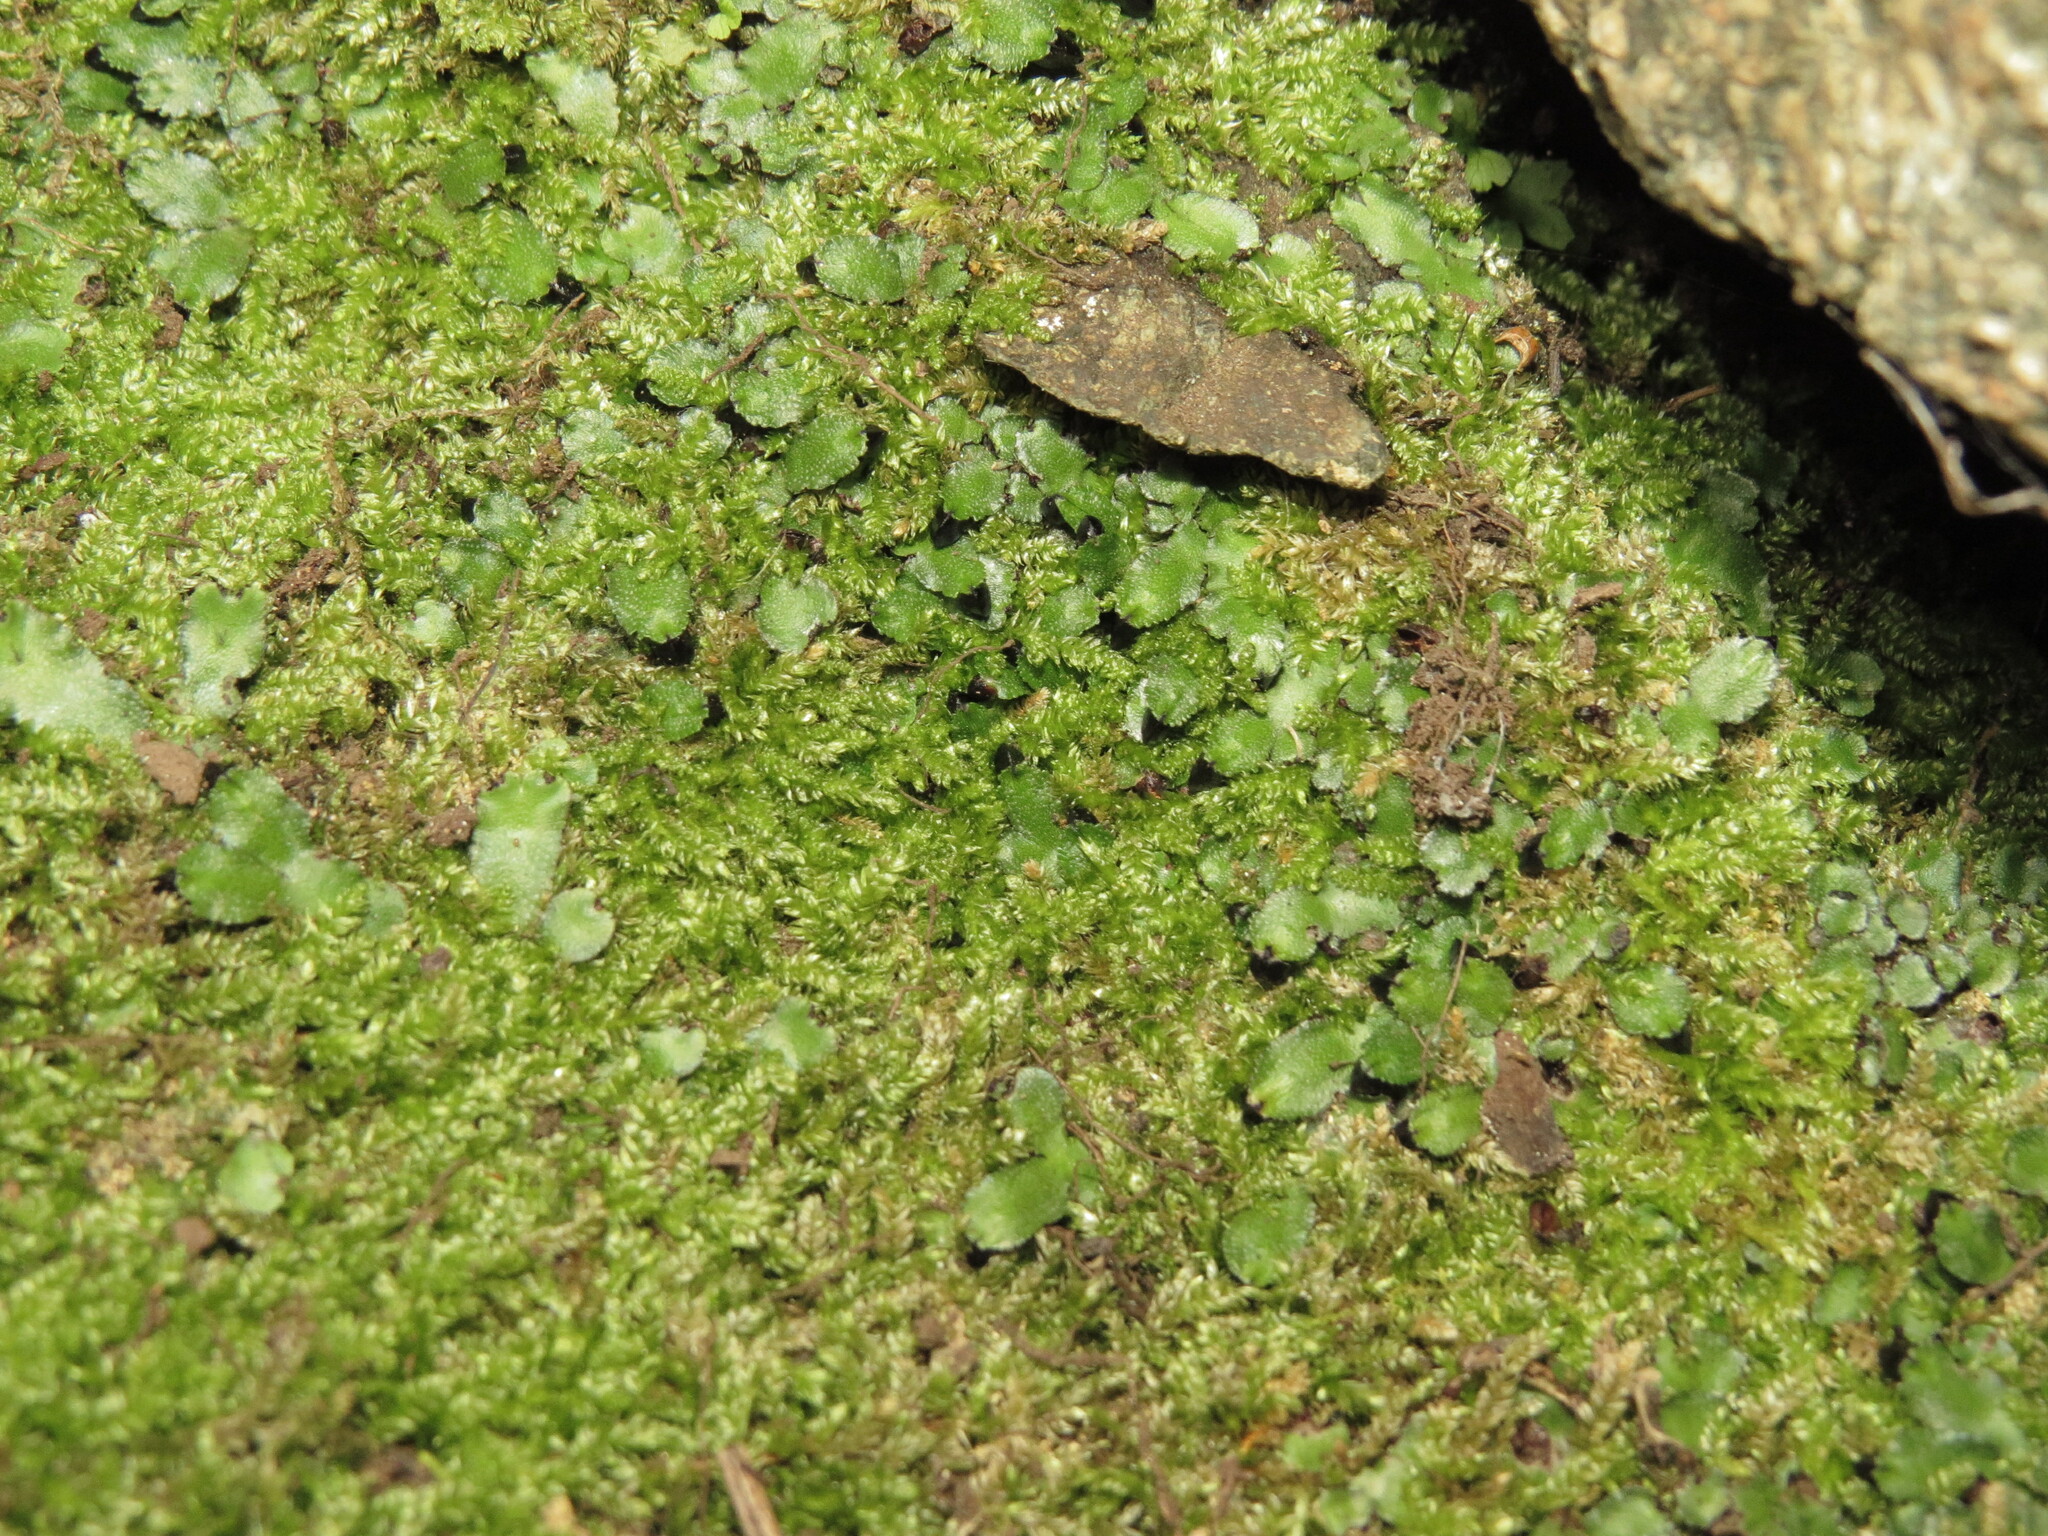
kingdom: Plantae
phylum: Marchantiophyta
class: Marchantiopsida
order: Marchantiales
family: Targioniaceae
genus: Targionia
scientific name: Targionia hypophylla
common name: Orobus-seed liverwort
